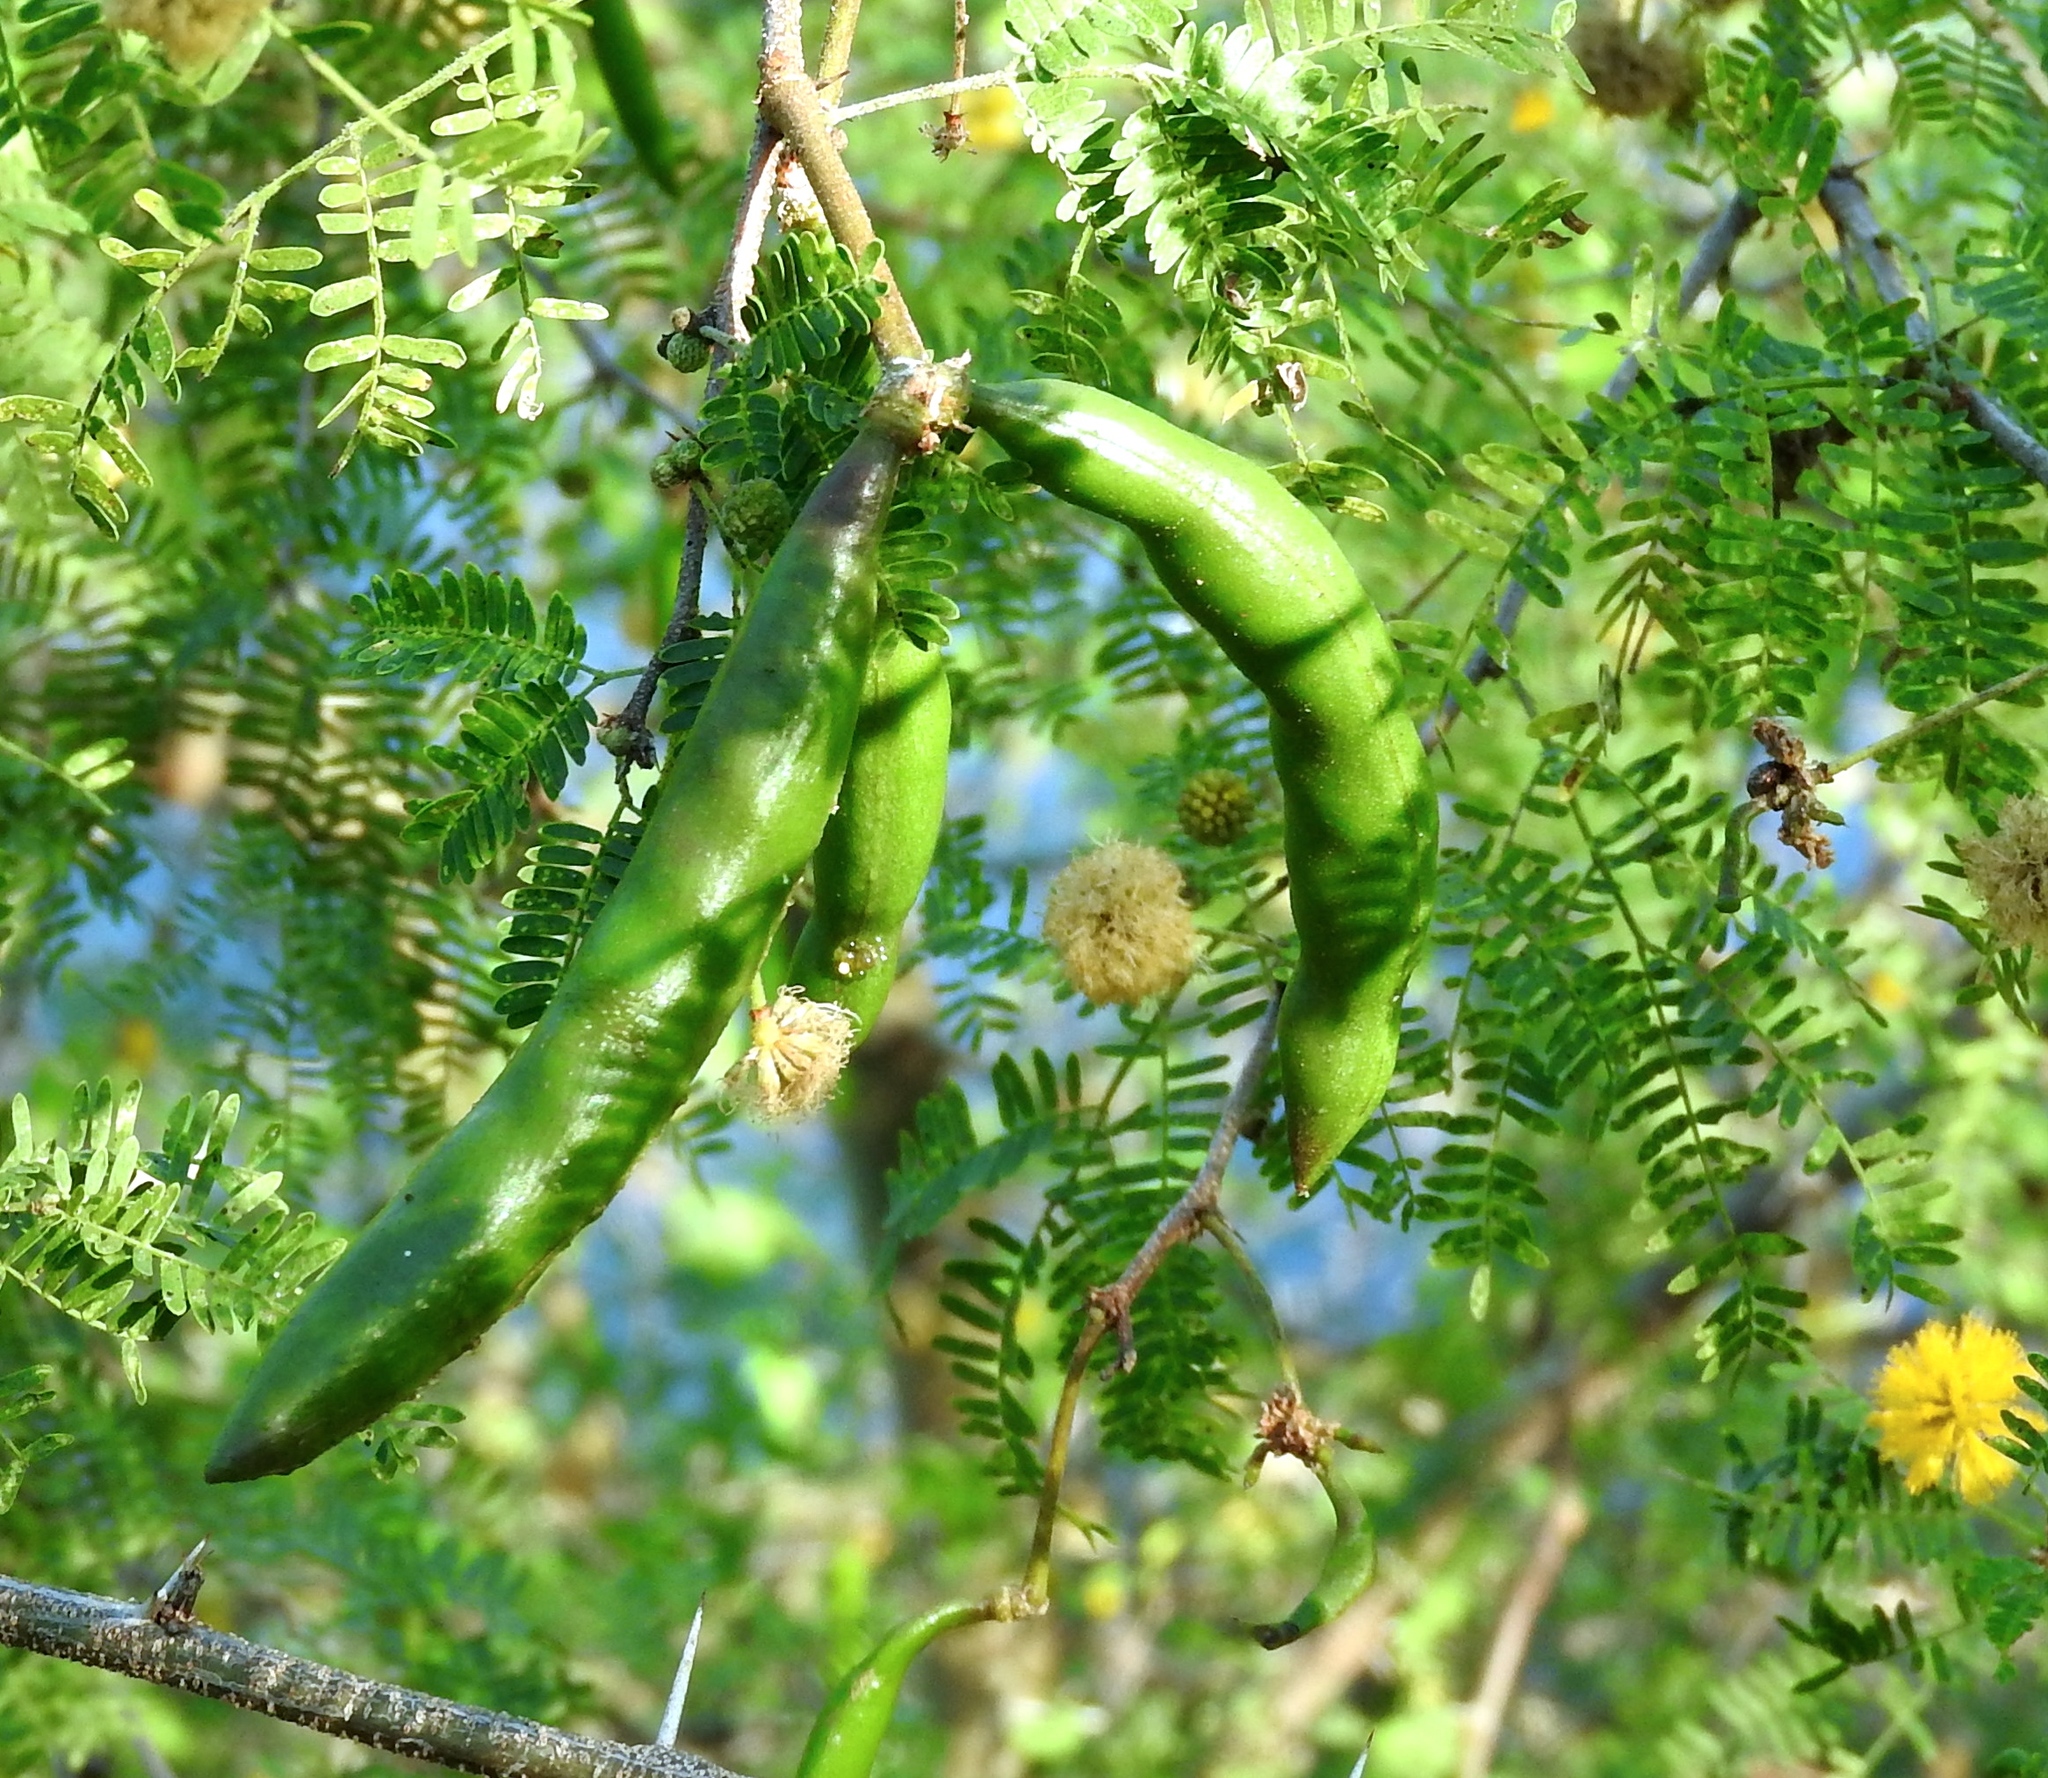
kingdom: Plantae
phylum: Tracheophyta
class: Magnoliopsida
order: Fabales
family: Fabaceae
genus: Vachellia
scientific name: Vachellia farnesiana
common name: Sweet acacia
